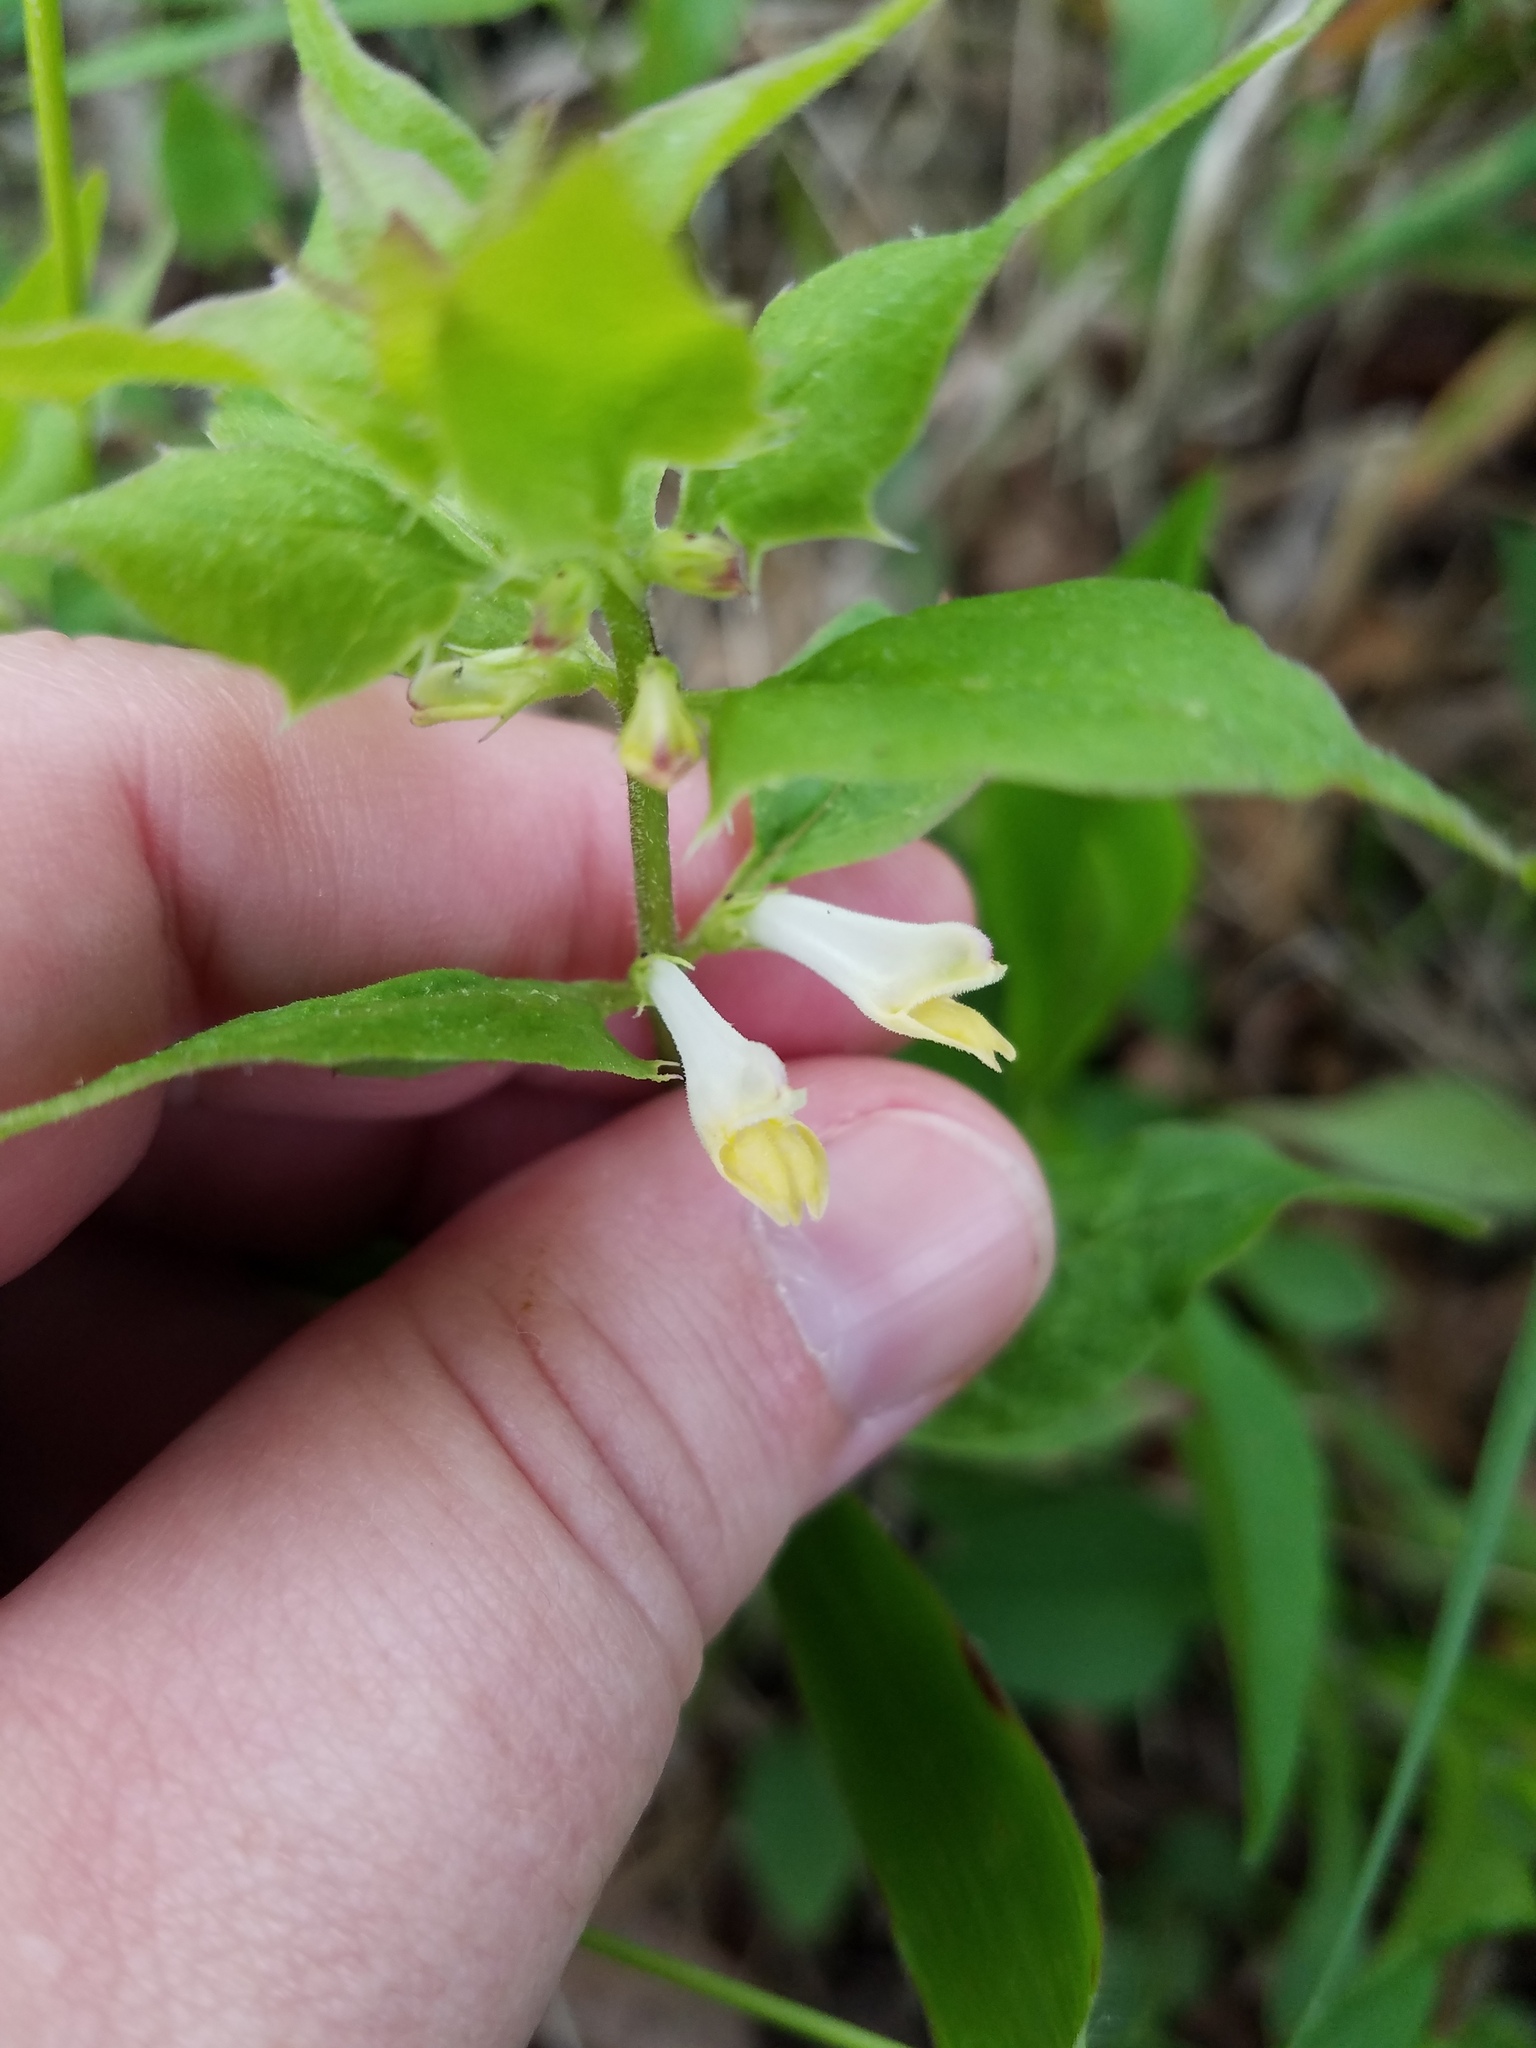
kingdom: Plantae
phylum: Tracheophyta
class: Magnoliopsida
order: Lamiales
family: Orobanchaceae
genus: Melampyrum
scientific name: Melampyrum lineare
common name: American cow-wheat
